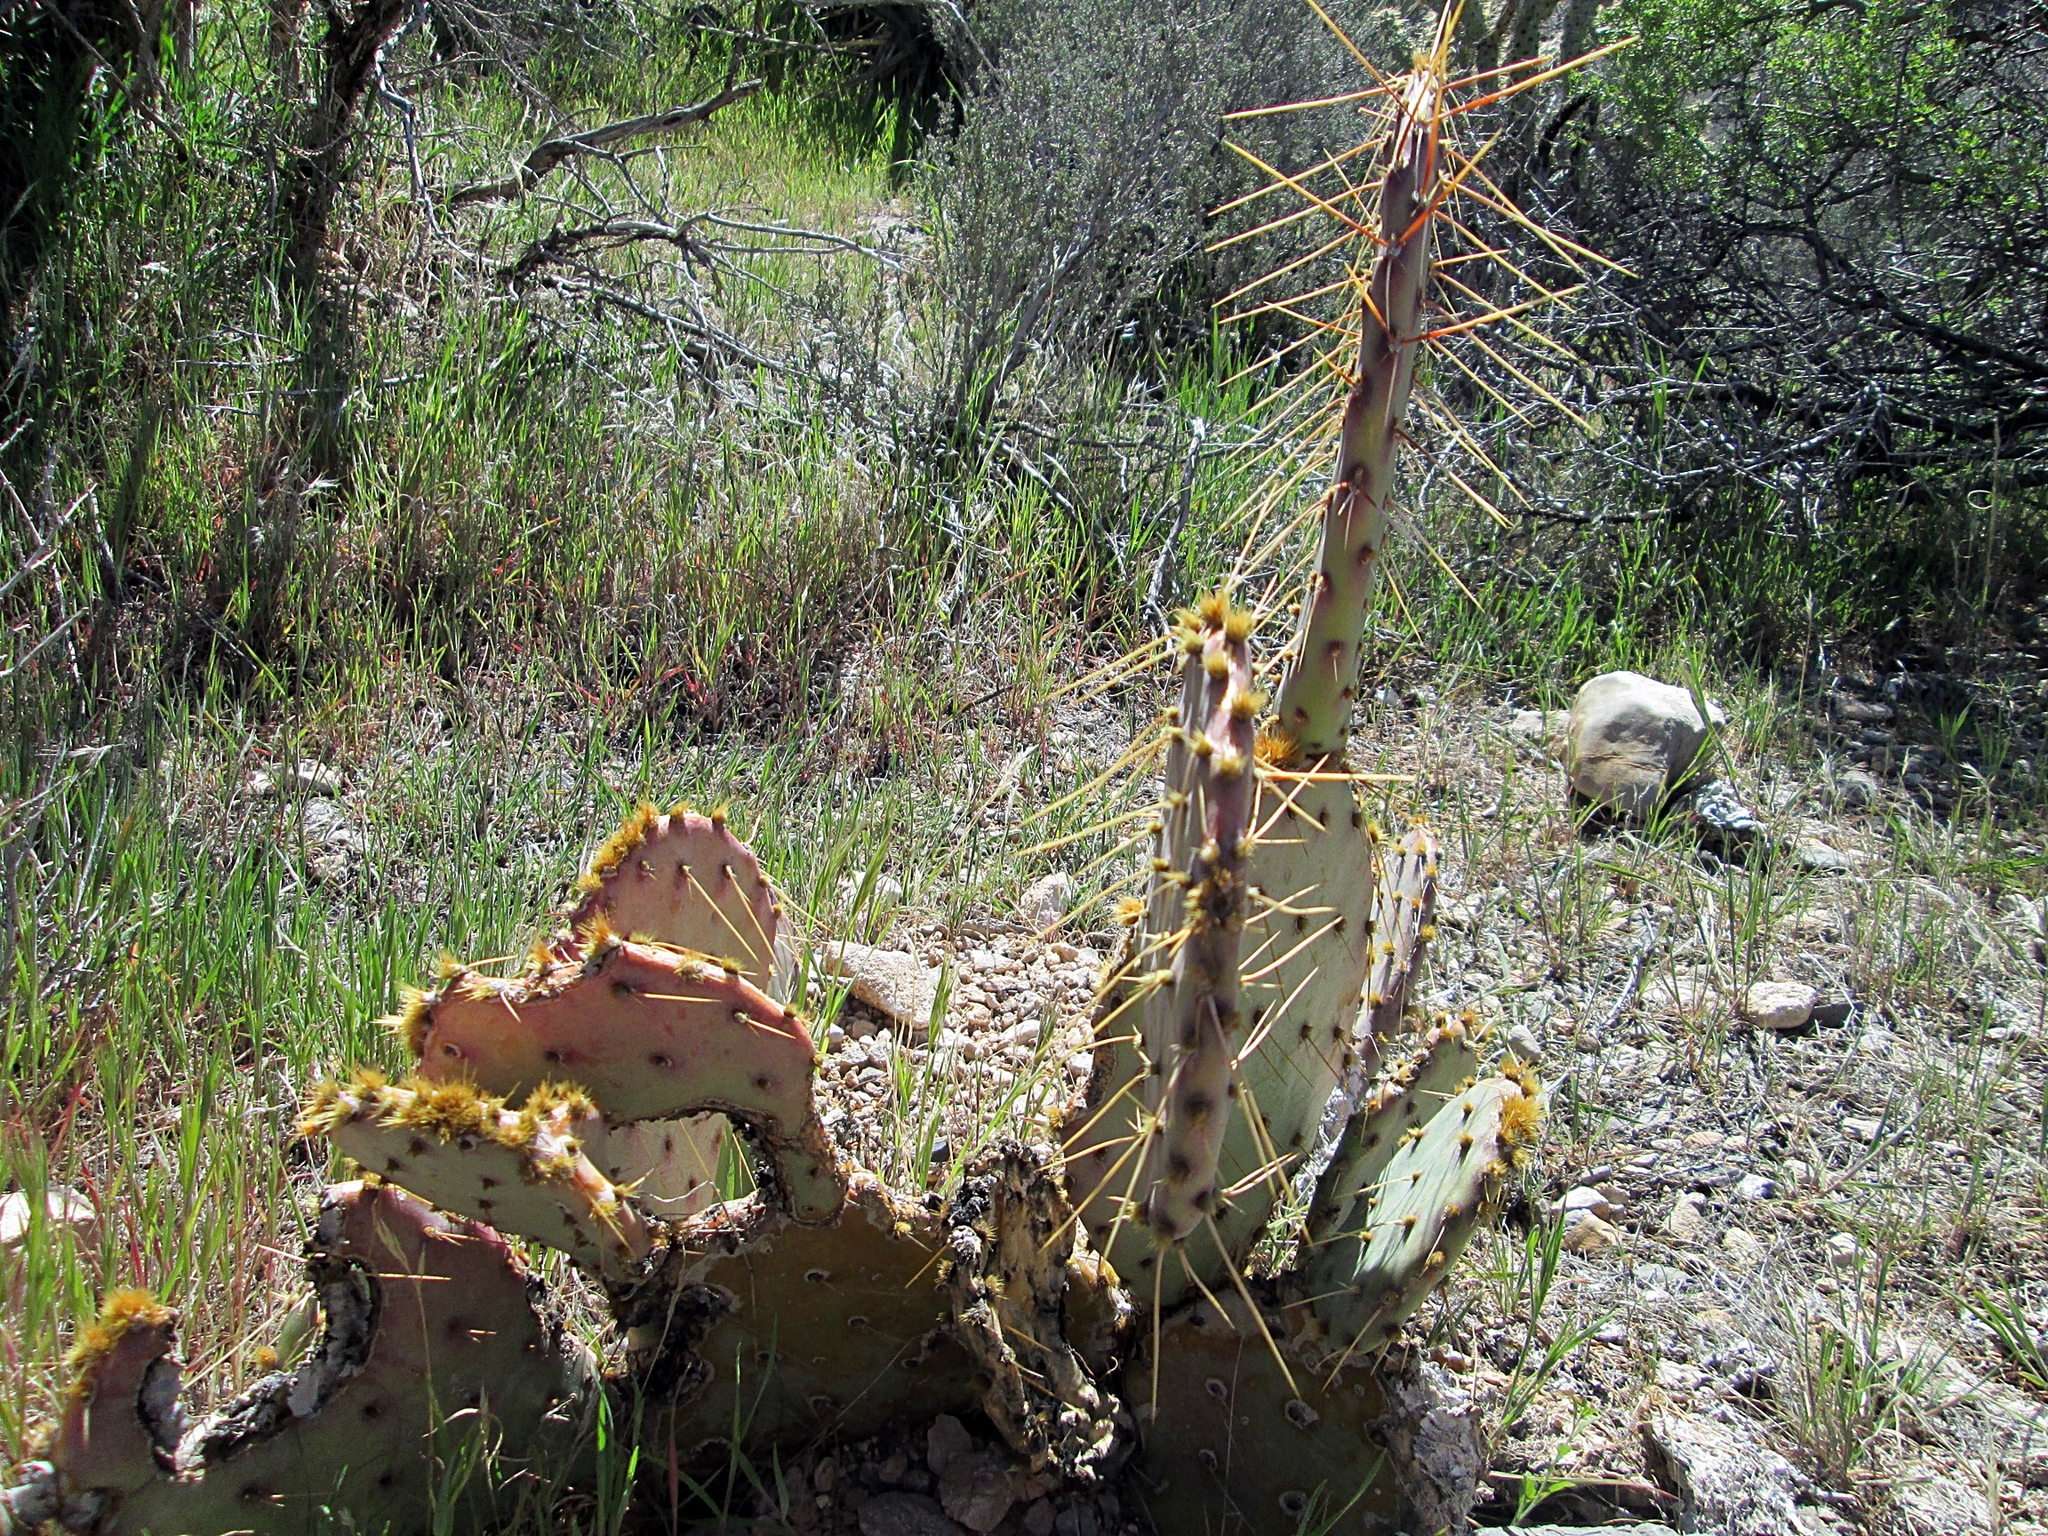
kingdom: Plantae
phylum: Tracheophyta
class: Magnoliopsida
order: Caryophyllales
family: Cactaceae
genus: Opuntia
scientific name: Opuntia phaeacantha
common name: New mexico prickly-pear
